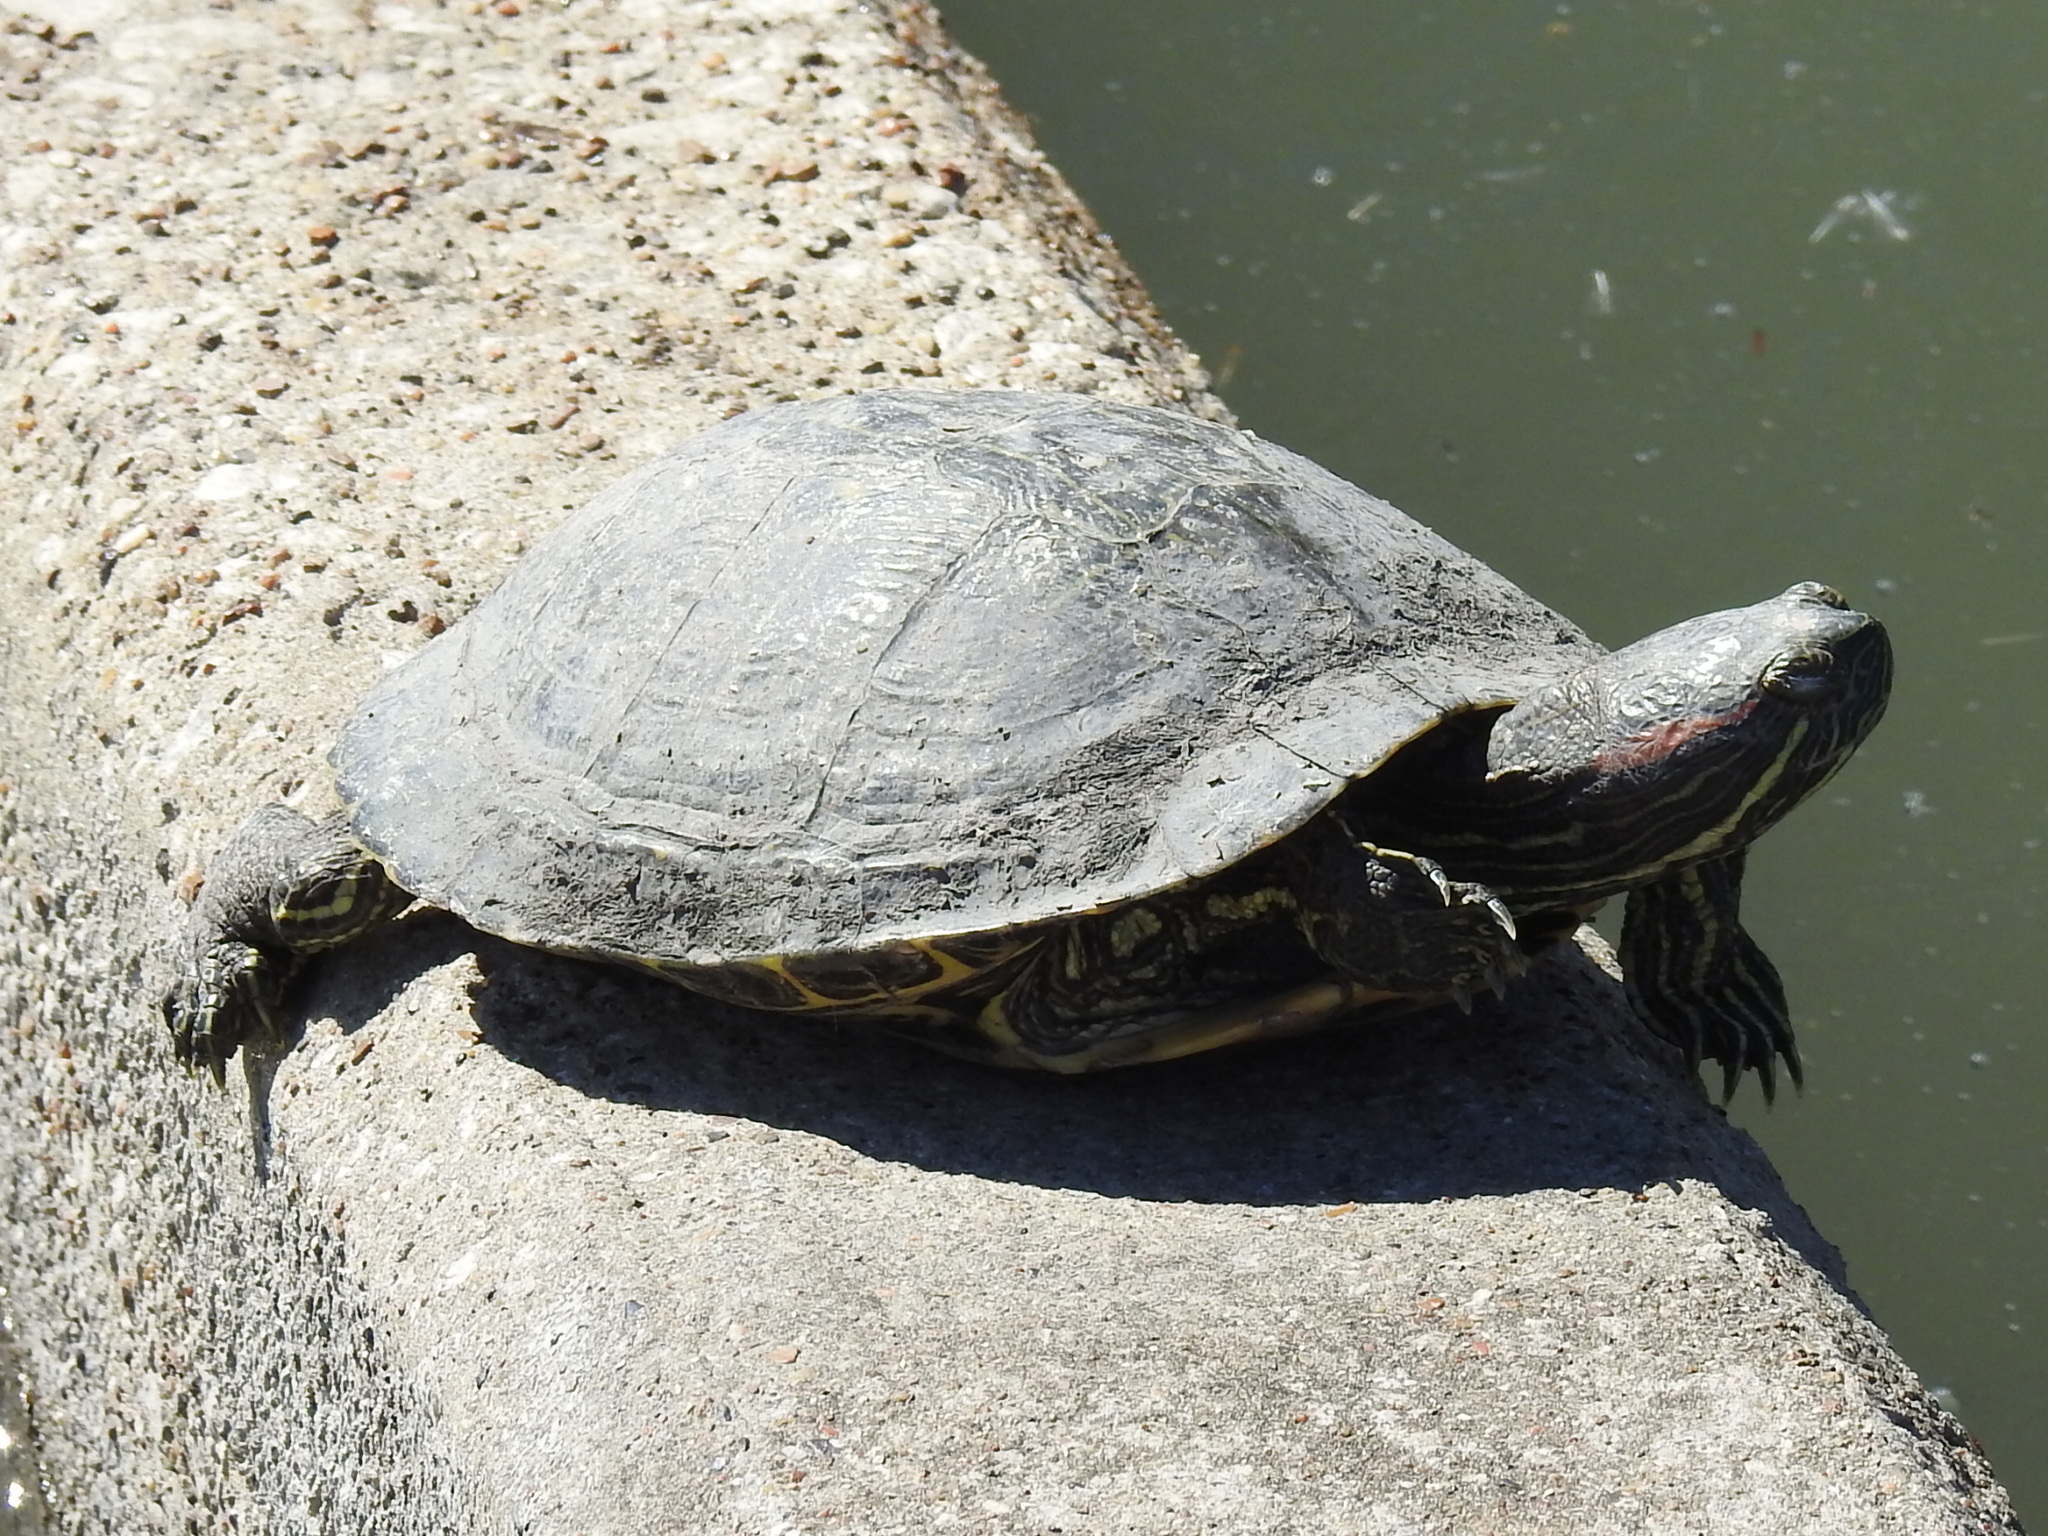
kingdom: Animalia
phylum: Chordata
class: Testudines
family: Emydidae
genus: Trachemys
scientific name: Trachemys scripta
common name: Slider
